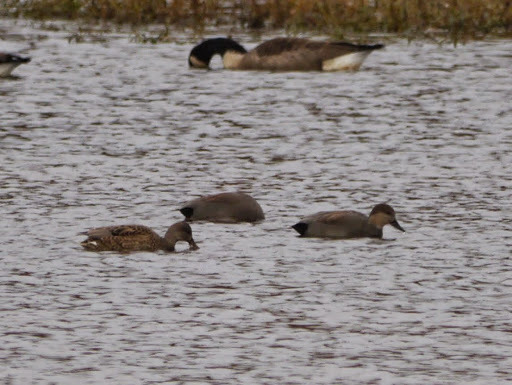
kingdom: Animalia
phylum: Chordata
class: Aves
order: Anseriformes
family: Anatidae
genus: Mareca
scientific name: Mareca strepera
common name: Gadwall
